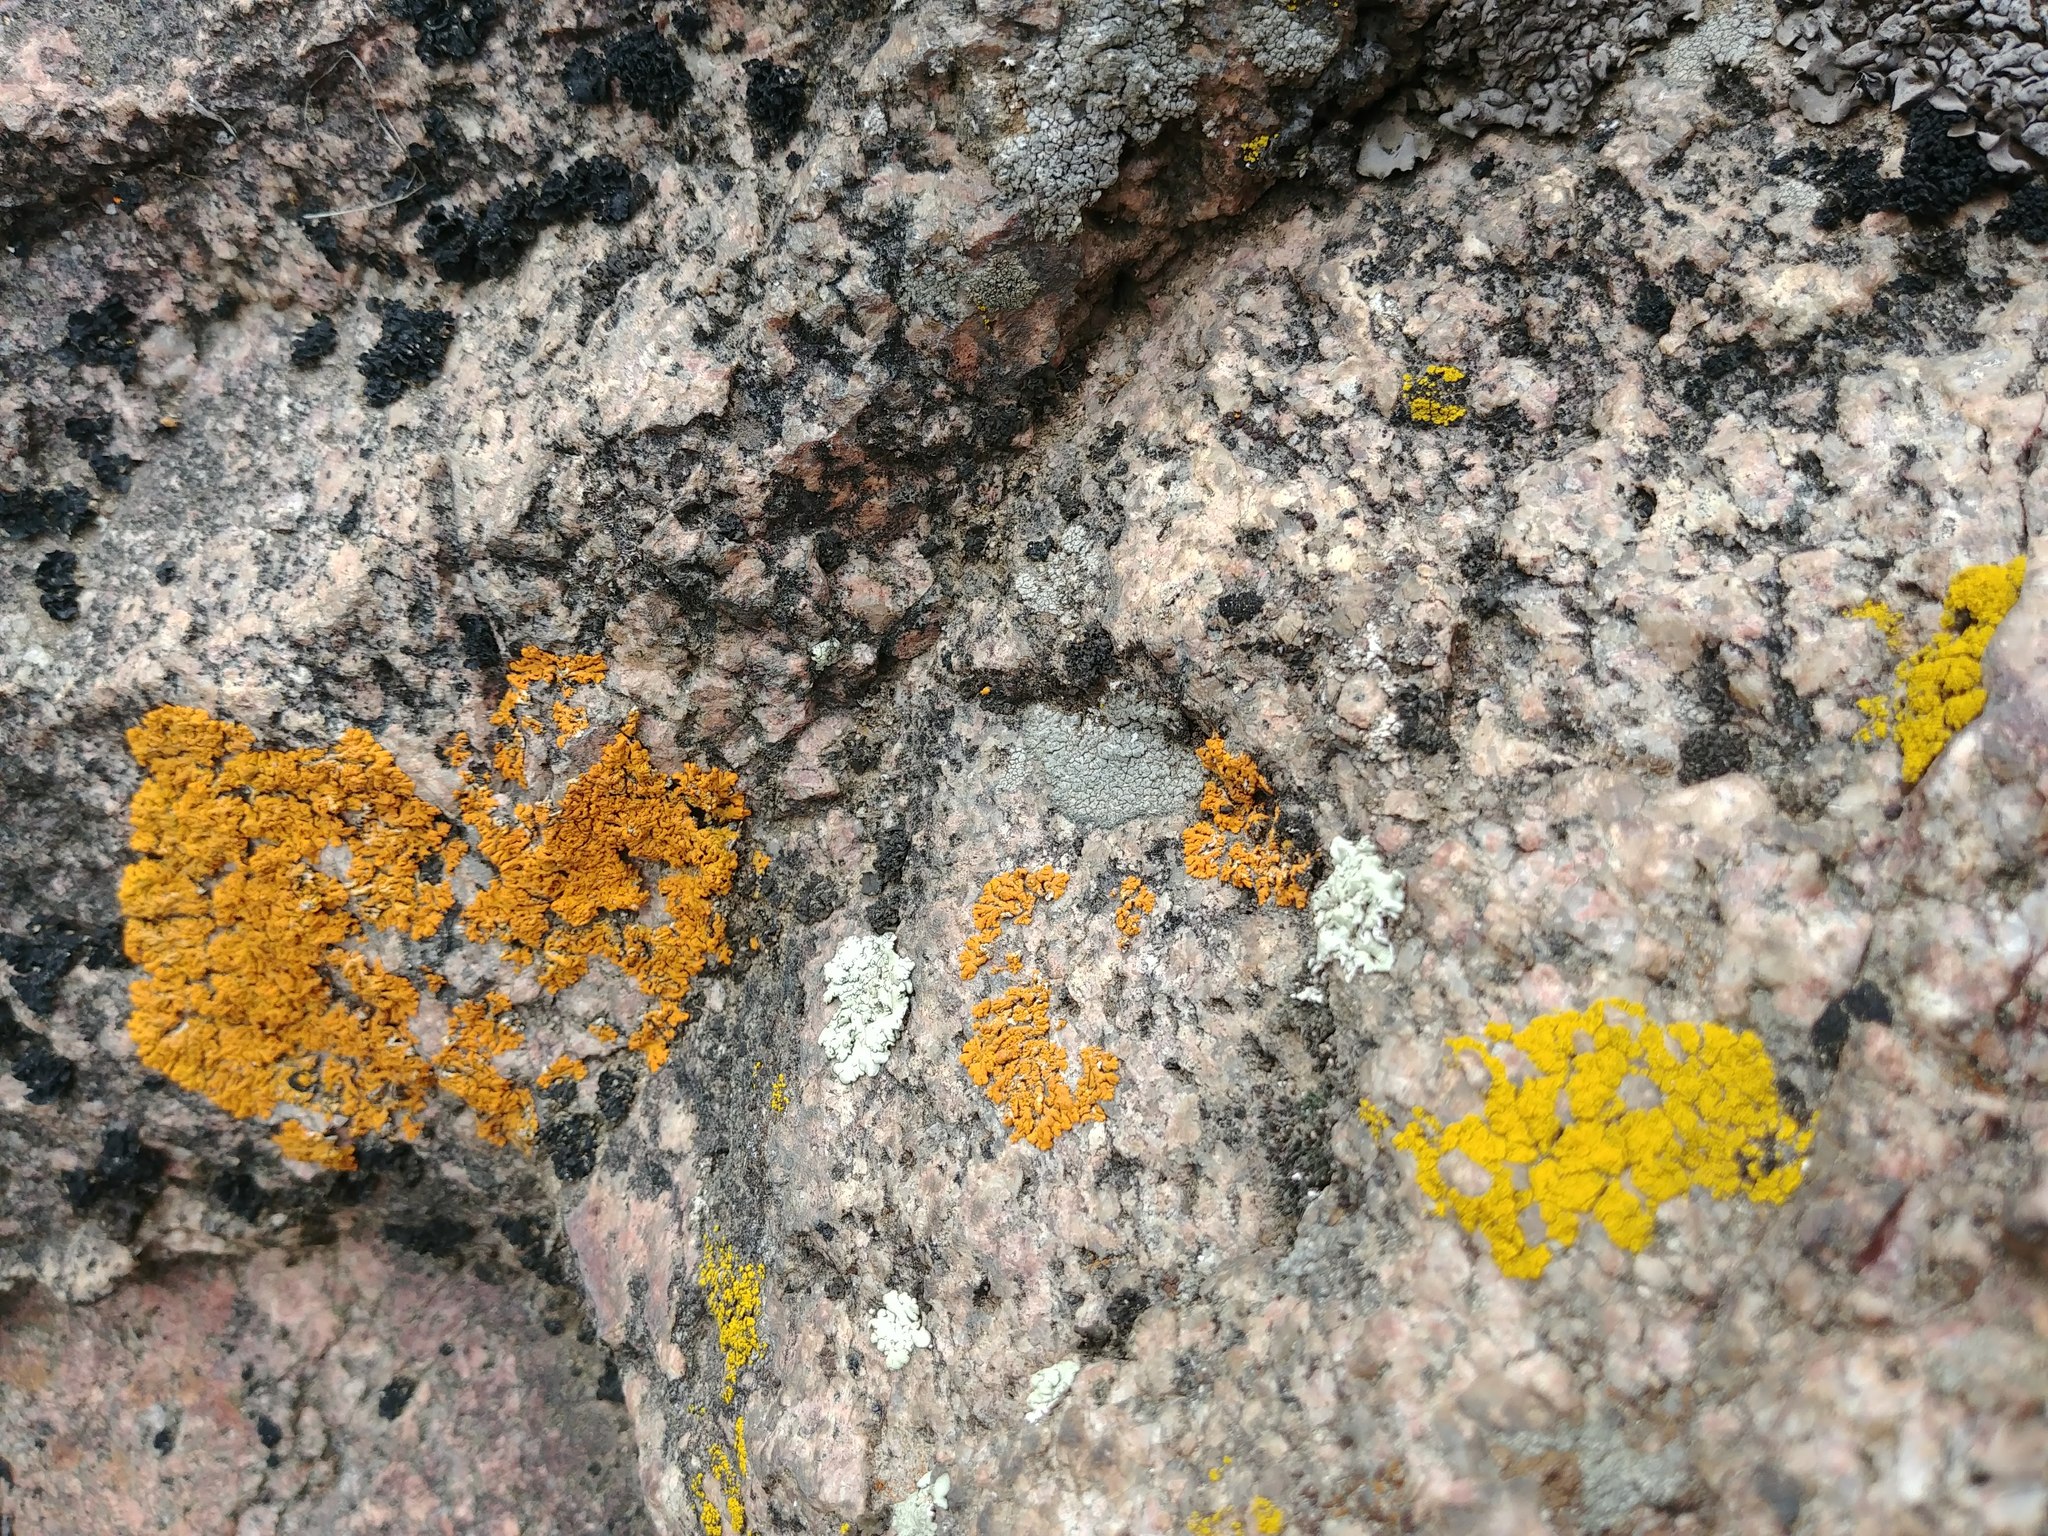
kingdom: Fungi
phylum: Ascomycota
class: Lecanoromycetes
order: Teloschistales
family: Teloschistaceae
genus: Xanthoria
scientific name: Xanthoria elegans
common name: Elegant sunburst lichen
